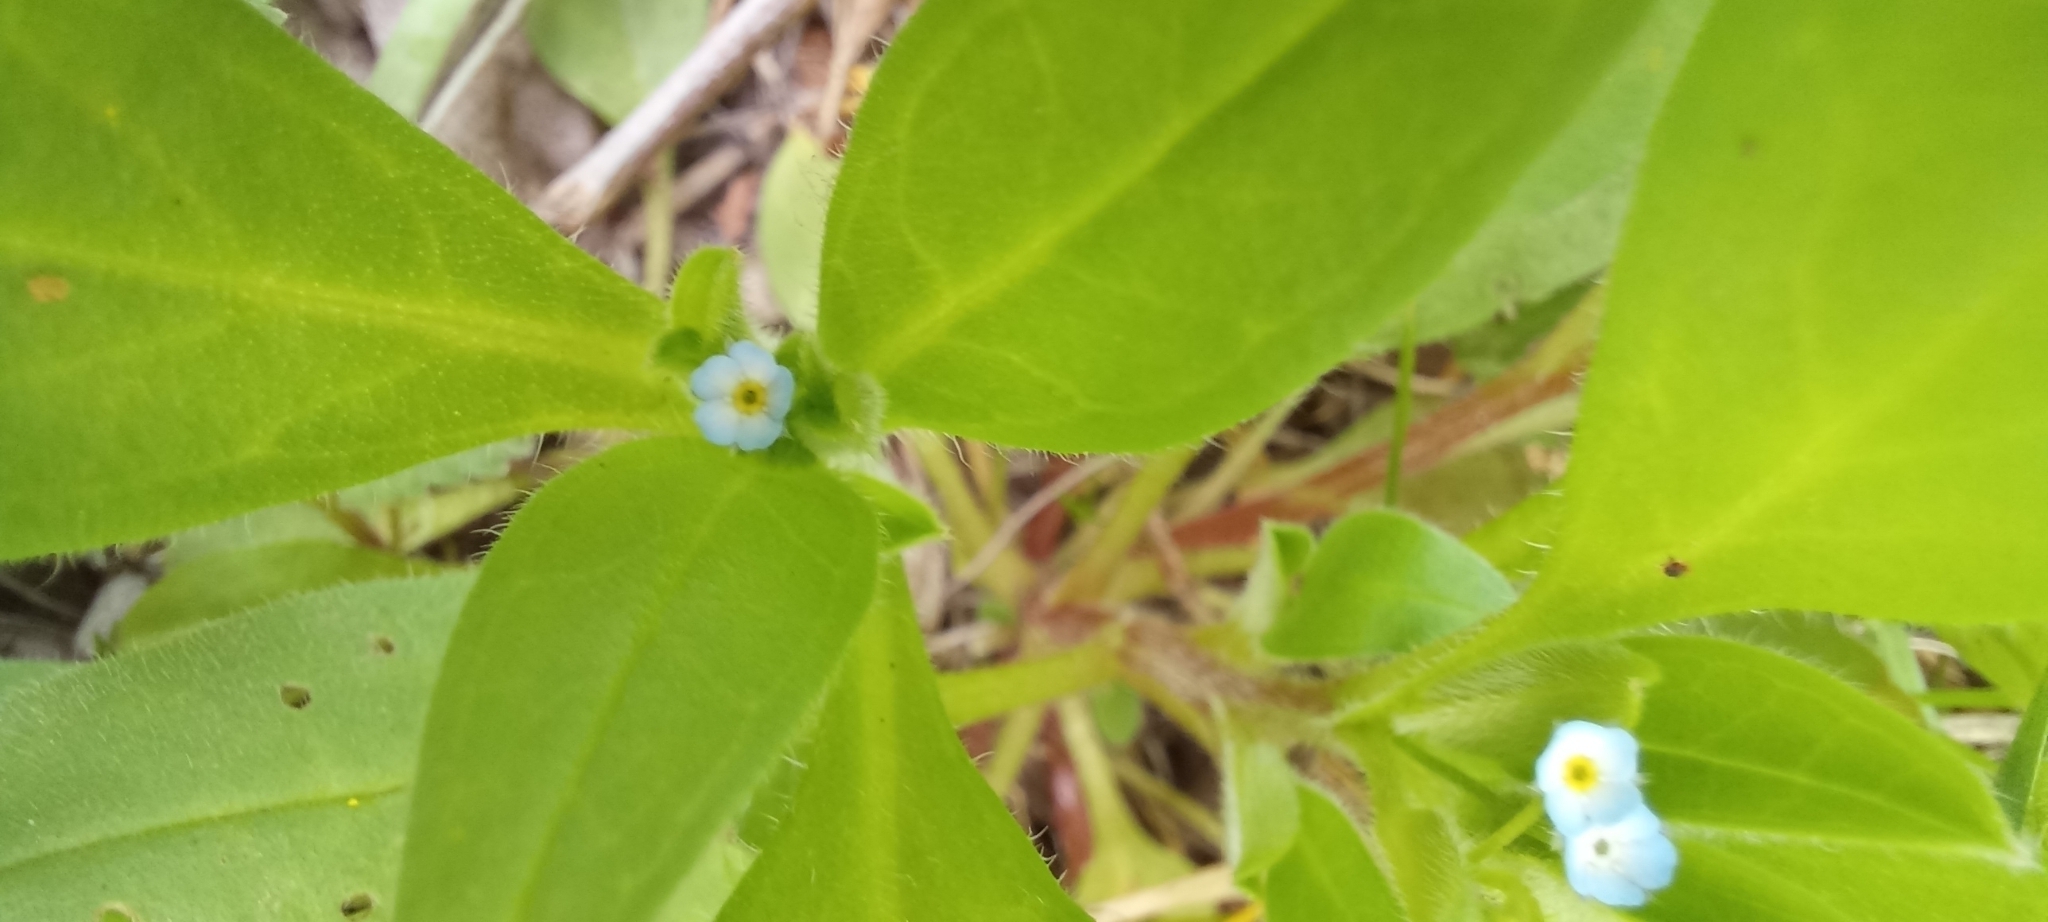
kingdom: Plantae
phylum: Tracheophyta
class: Magnoliopsida
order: Boraginales
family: Boraginaceae
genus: Myosotis
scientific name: Myosotis sparsiflora
